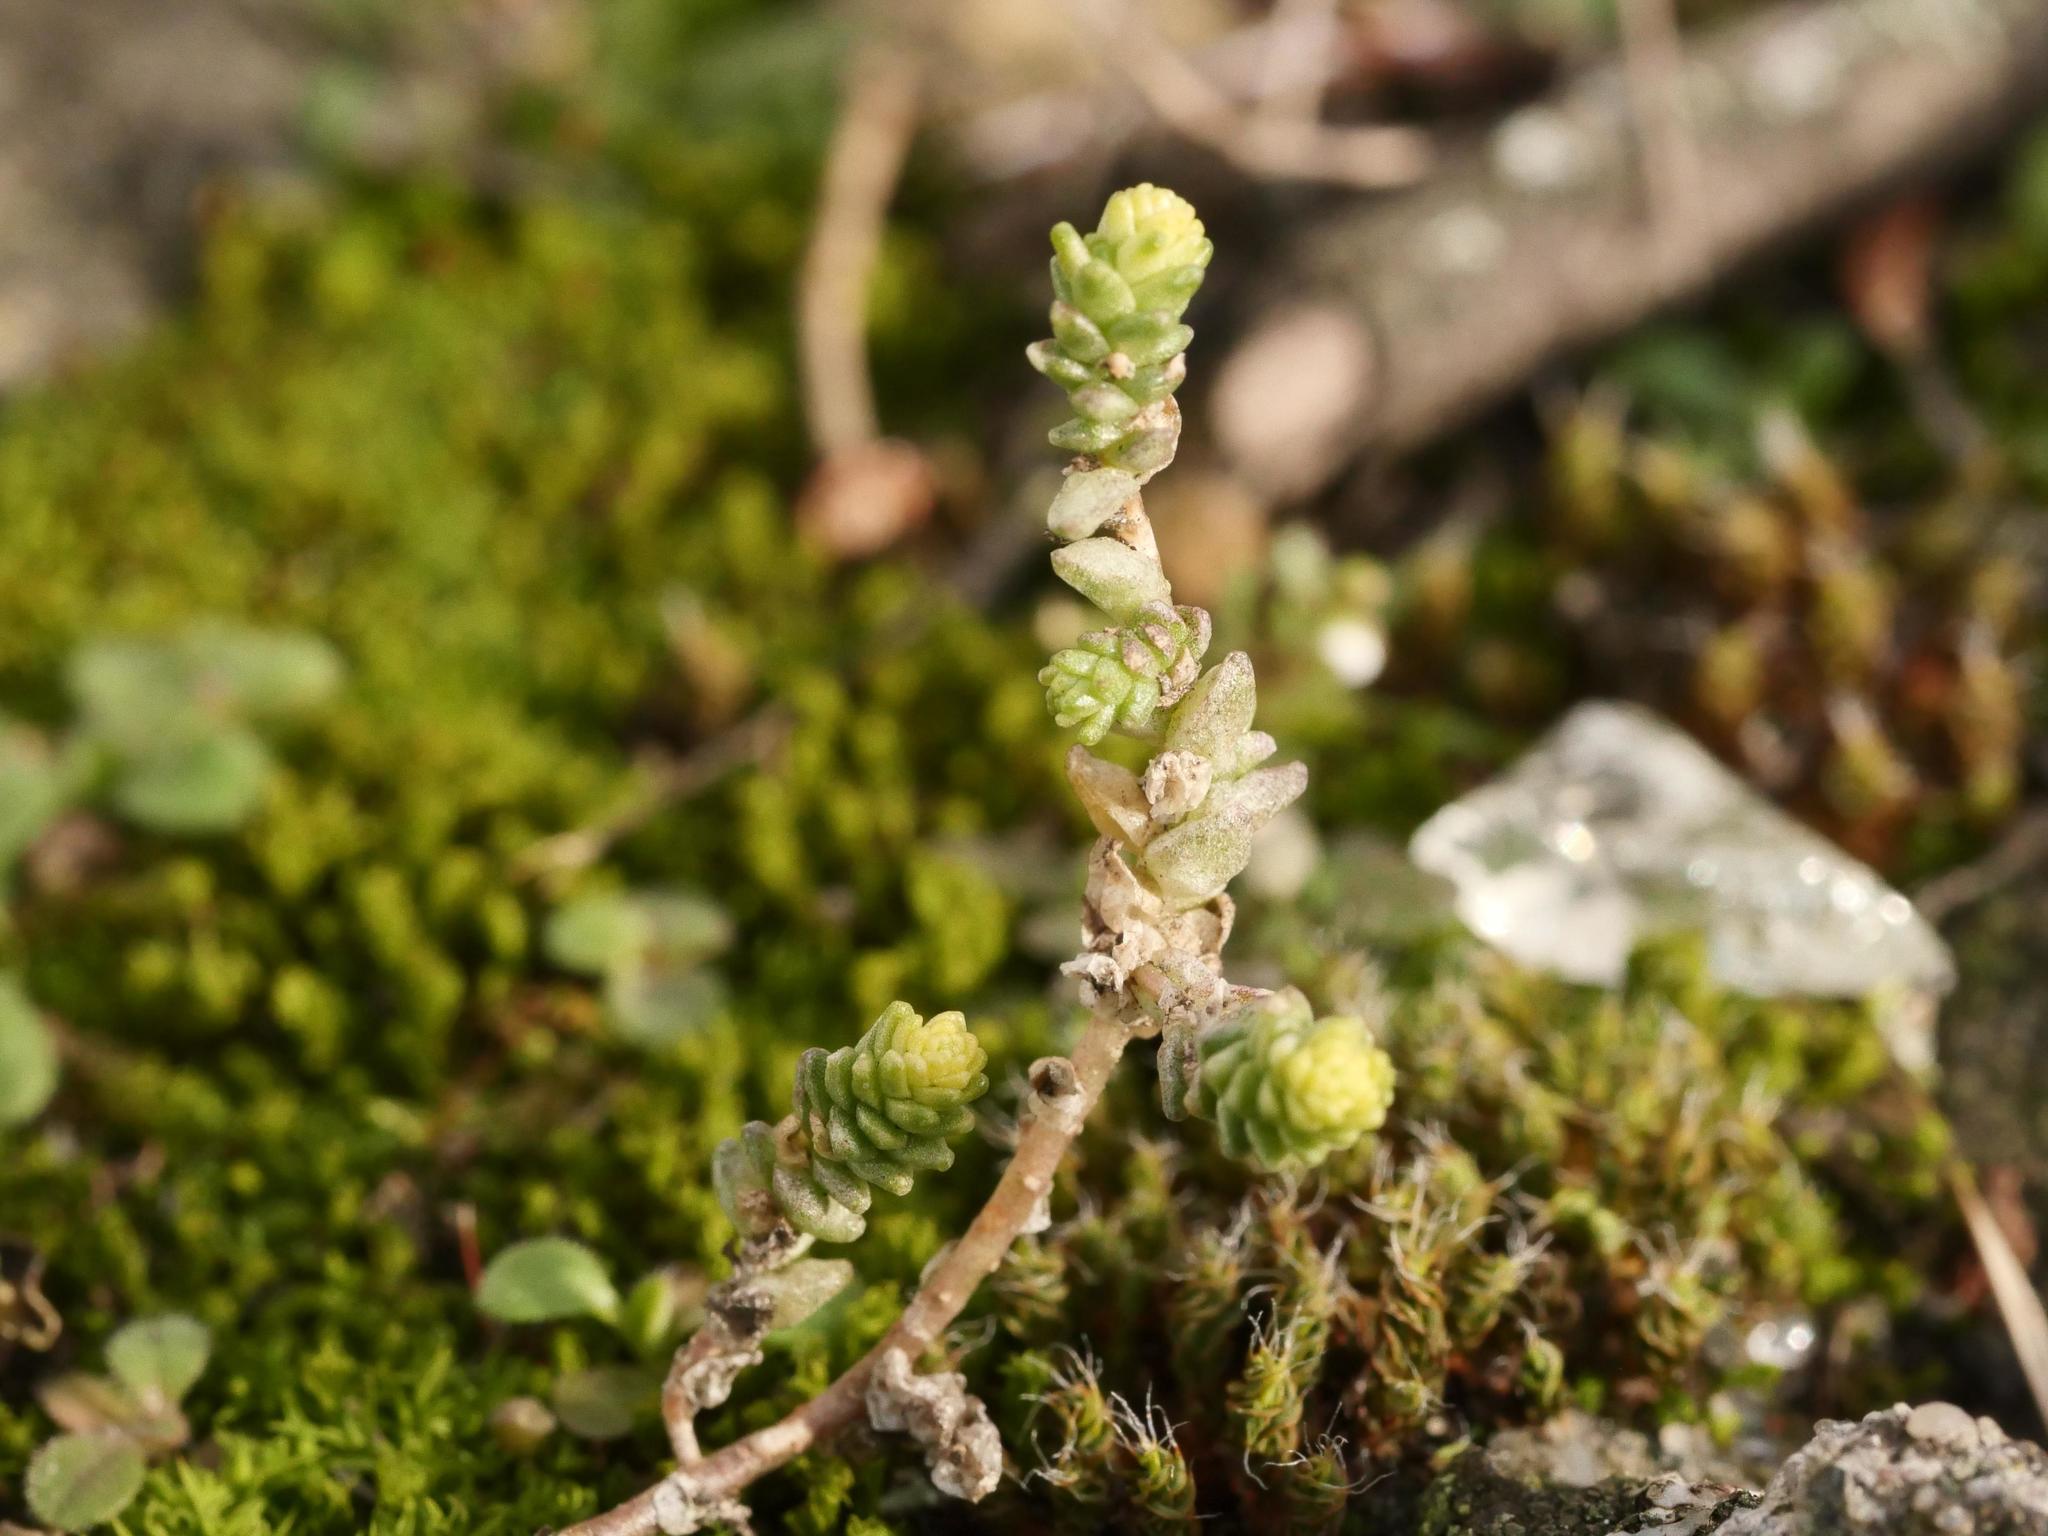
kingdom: Plantae
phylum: Tracheophyta
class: Magnoliopsida
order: Saxifragales
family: Crassulaceae
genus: Sedum
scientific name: Sedum acre
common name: Biting stonecrop
